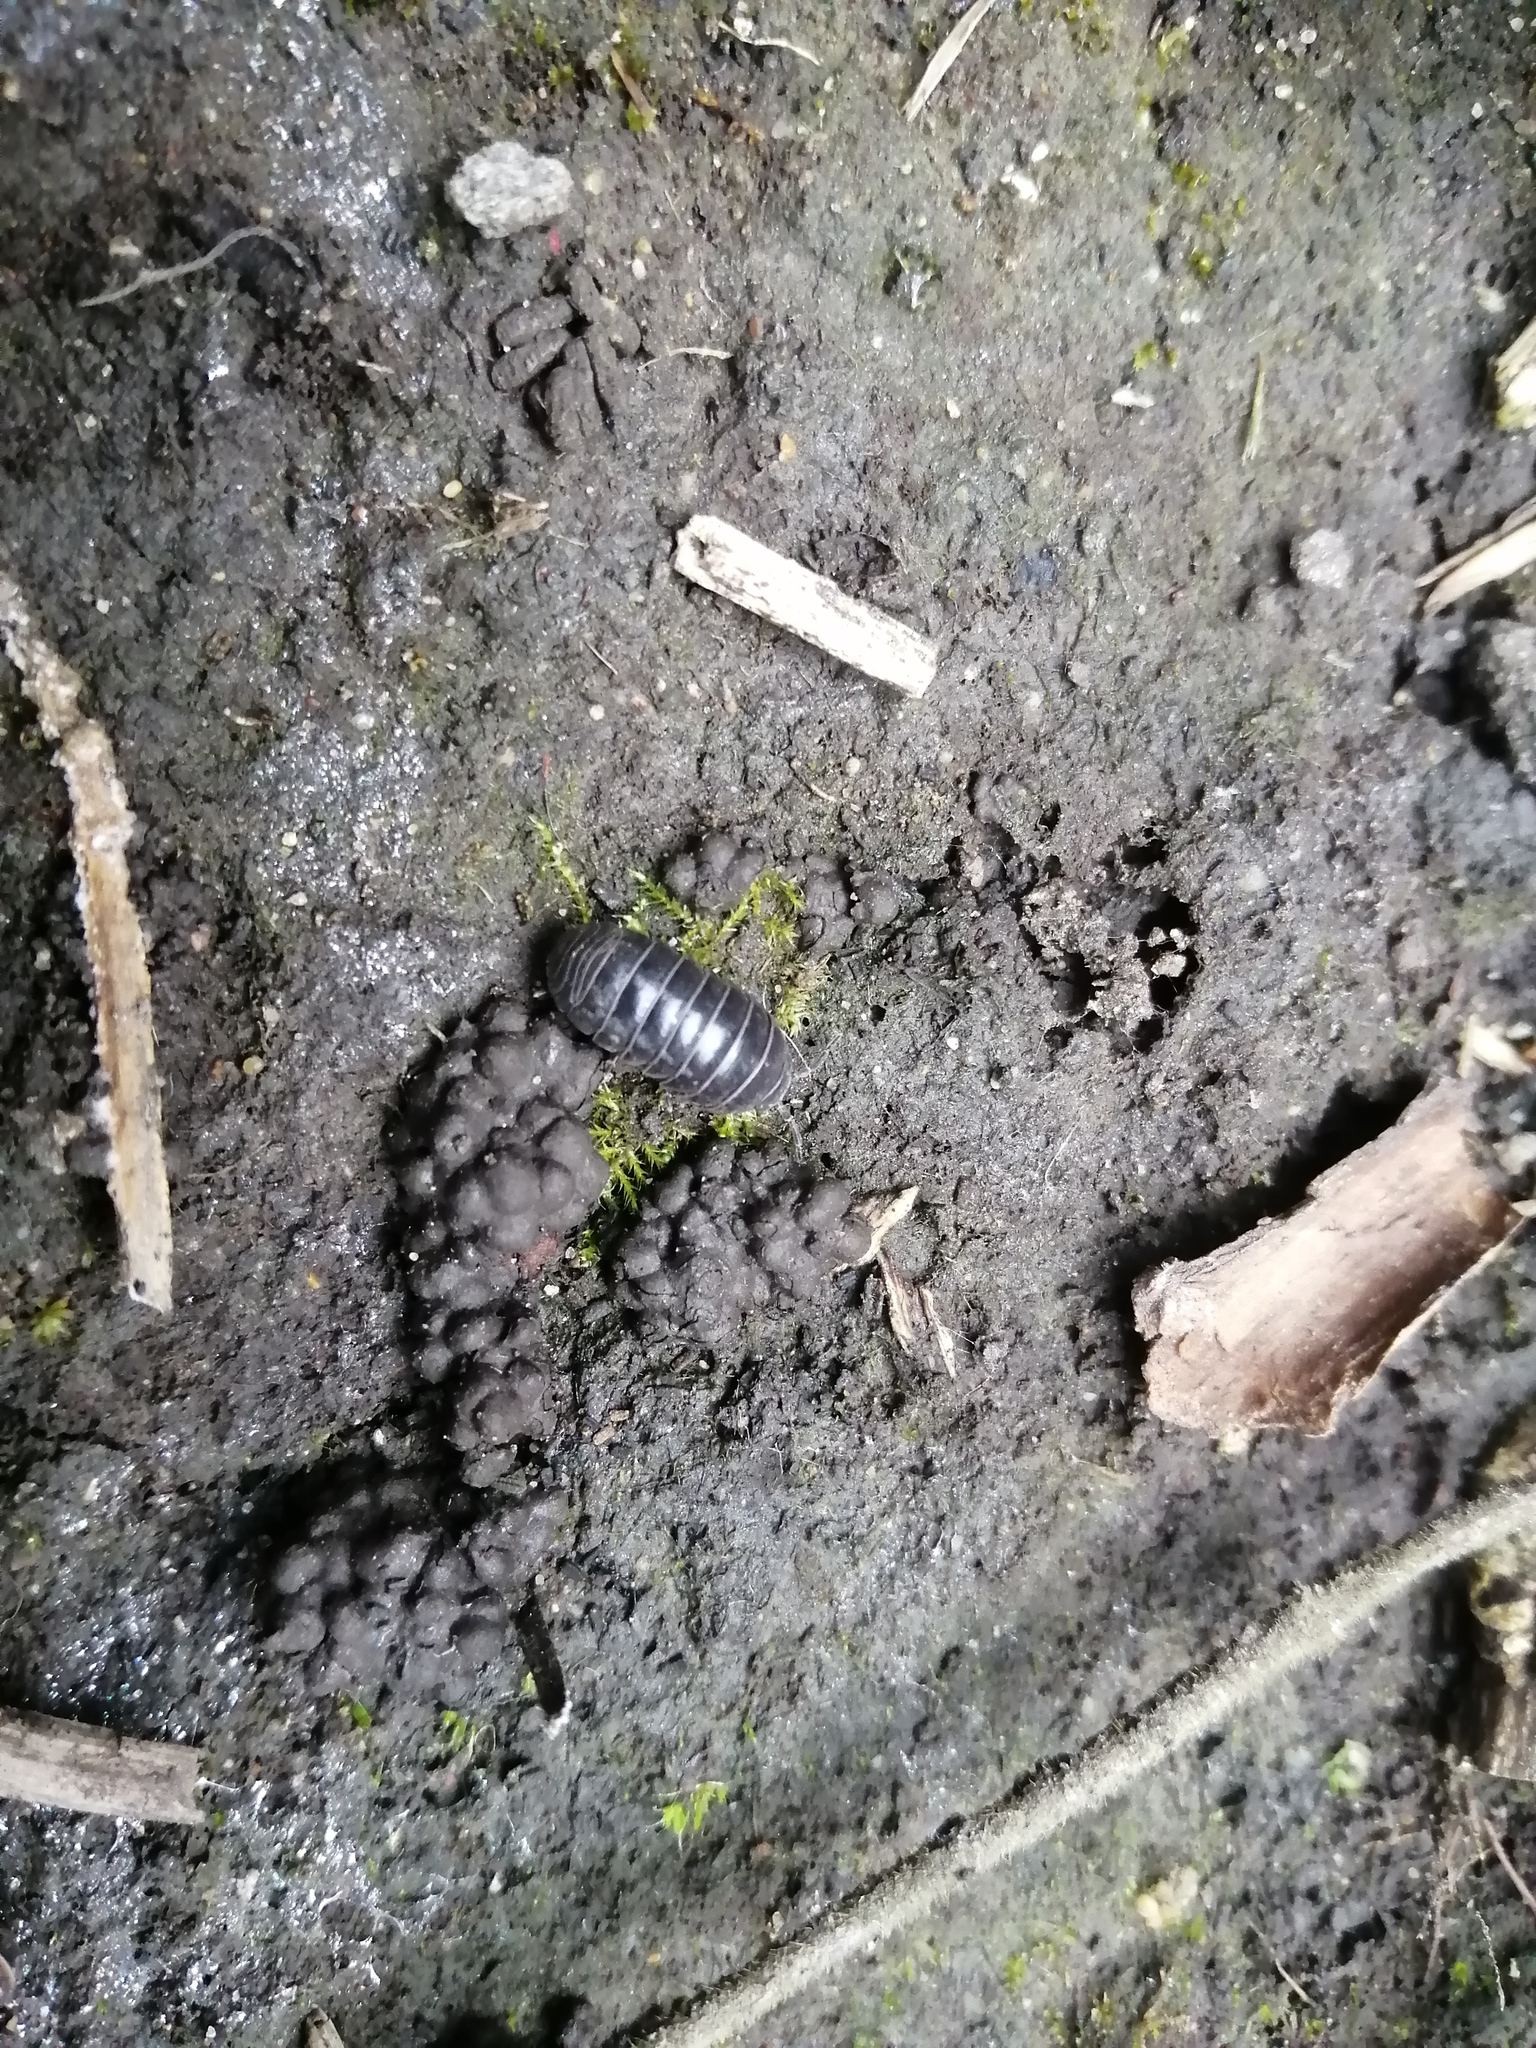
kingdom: Animalia
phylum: Arthropoda
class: Malacostraca
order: Isopoda
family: Armadillidiidae
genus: Armadillidium
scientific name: Armadillidium vulgare
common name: Common pill woodlouse
